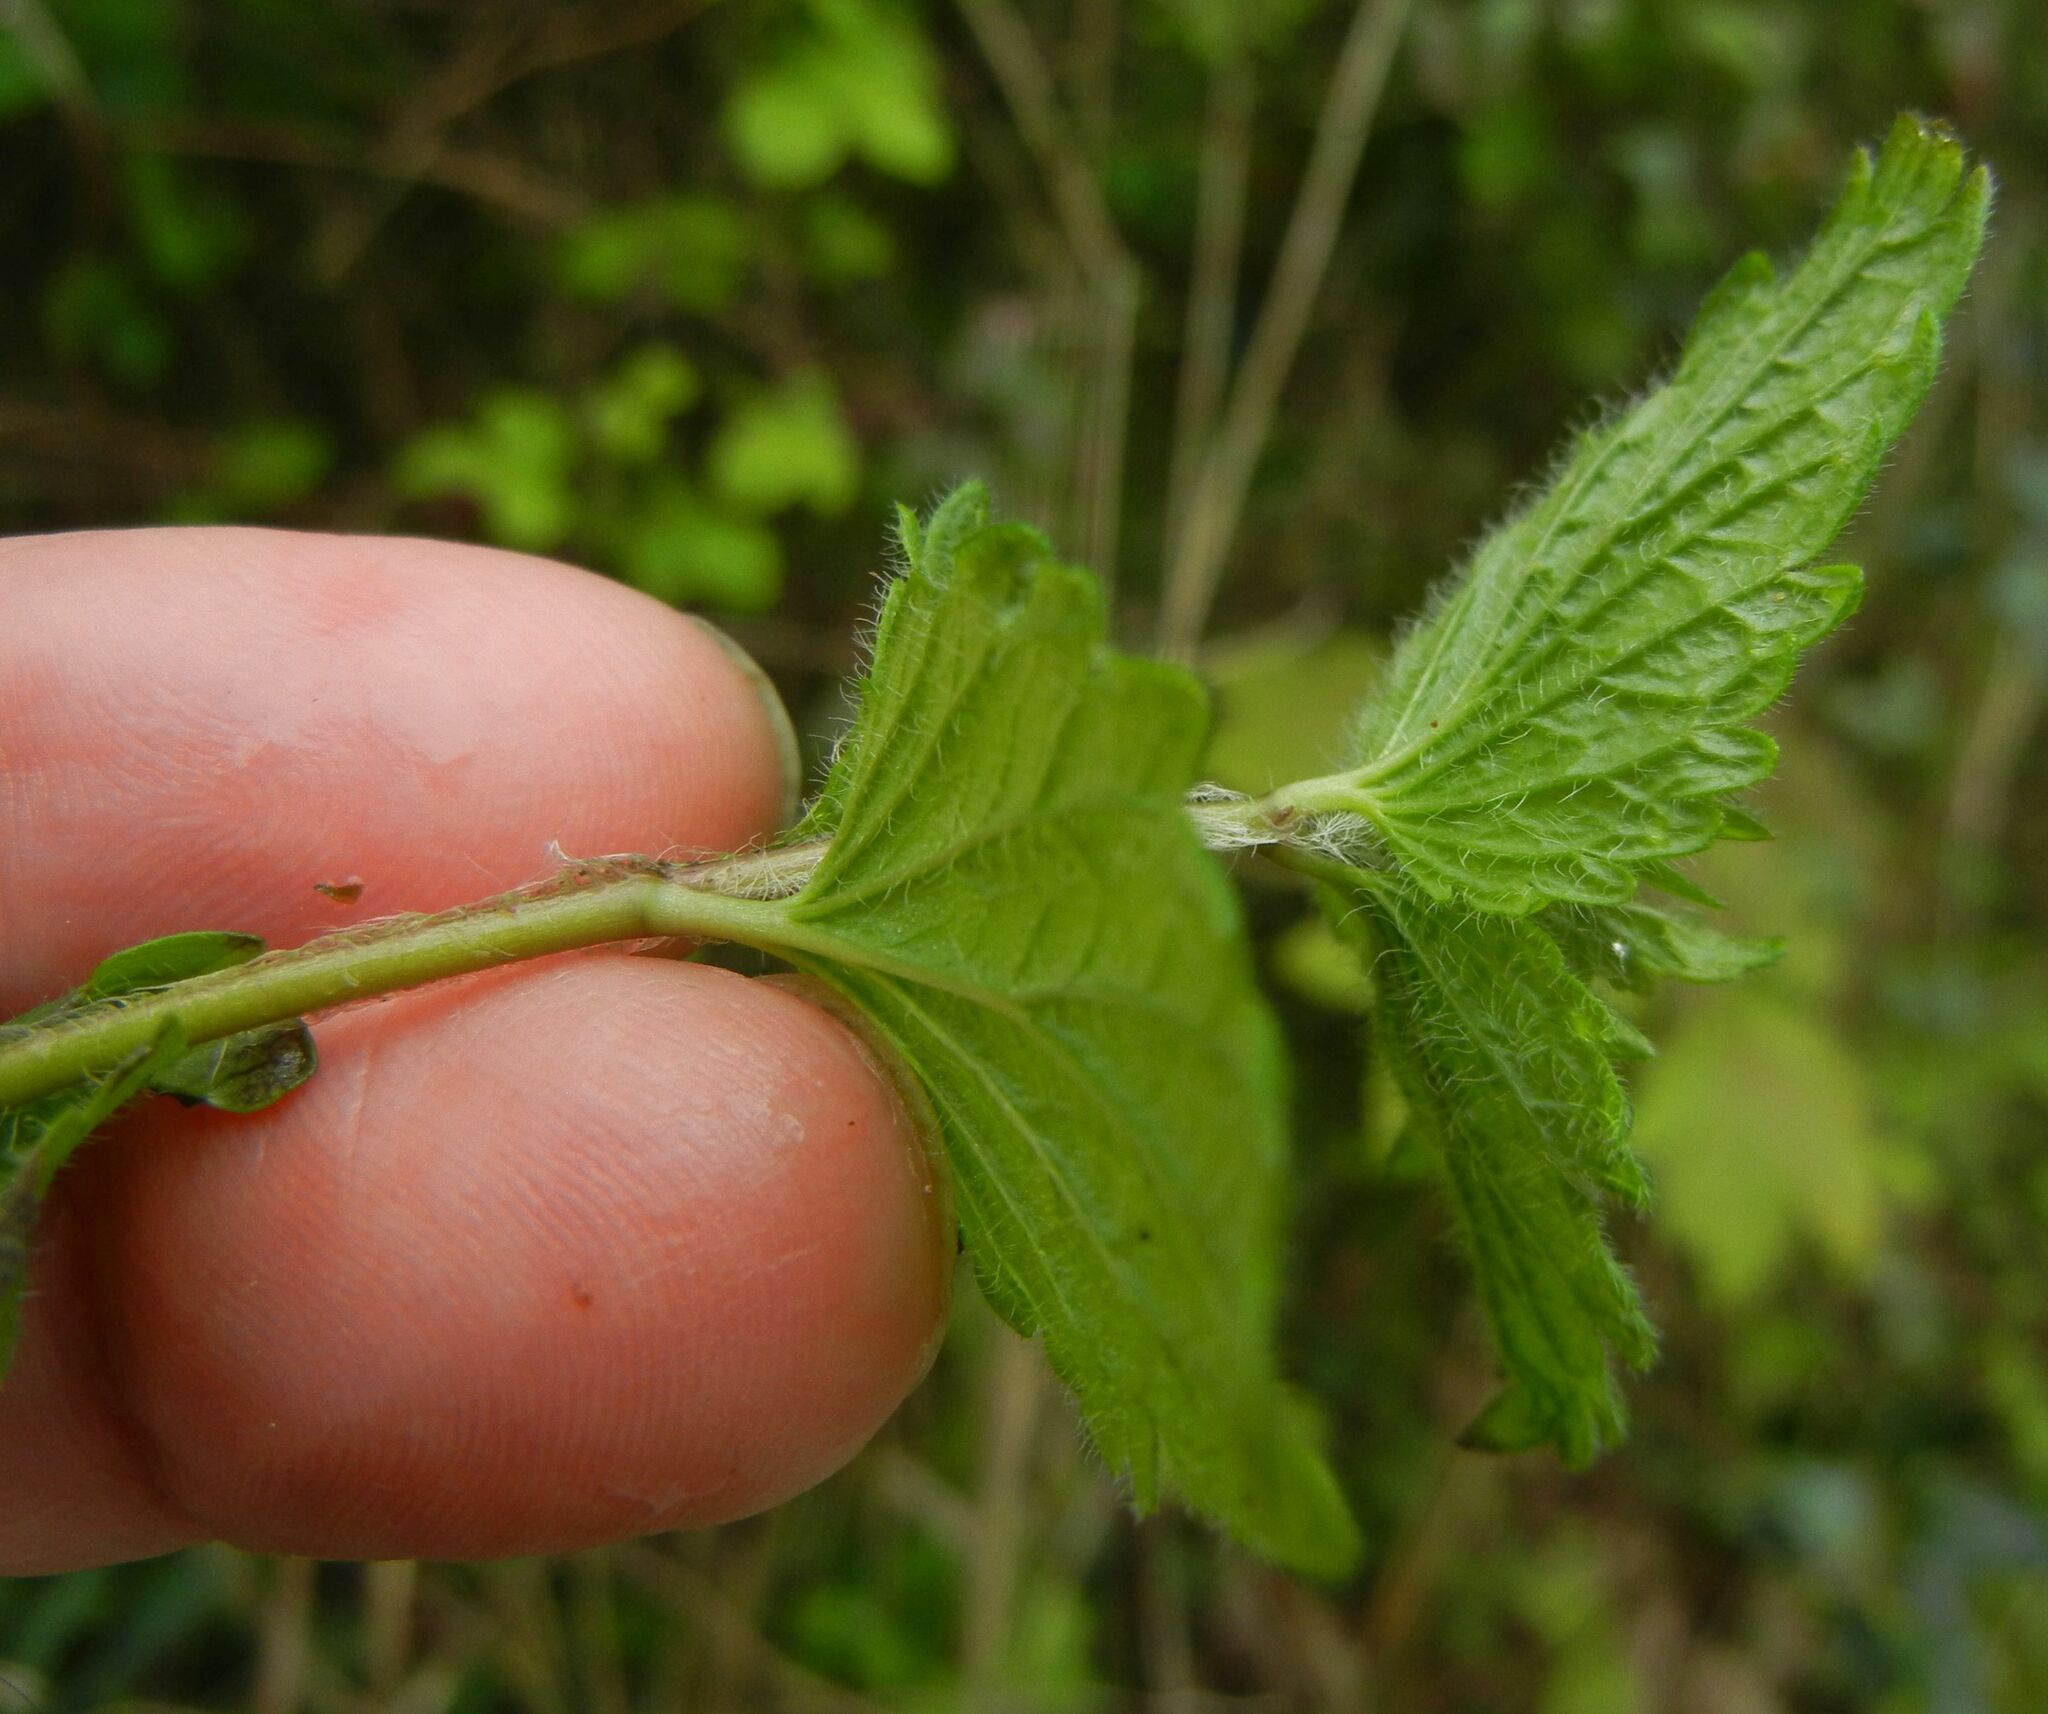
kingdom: Plantae
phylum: Tracheophyta
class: Magnoliopsida
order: Lamiales
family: Plantaginaceae
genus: Veronica
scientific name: Veronica chamaedrys
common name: Germander speedwell
